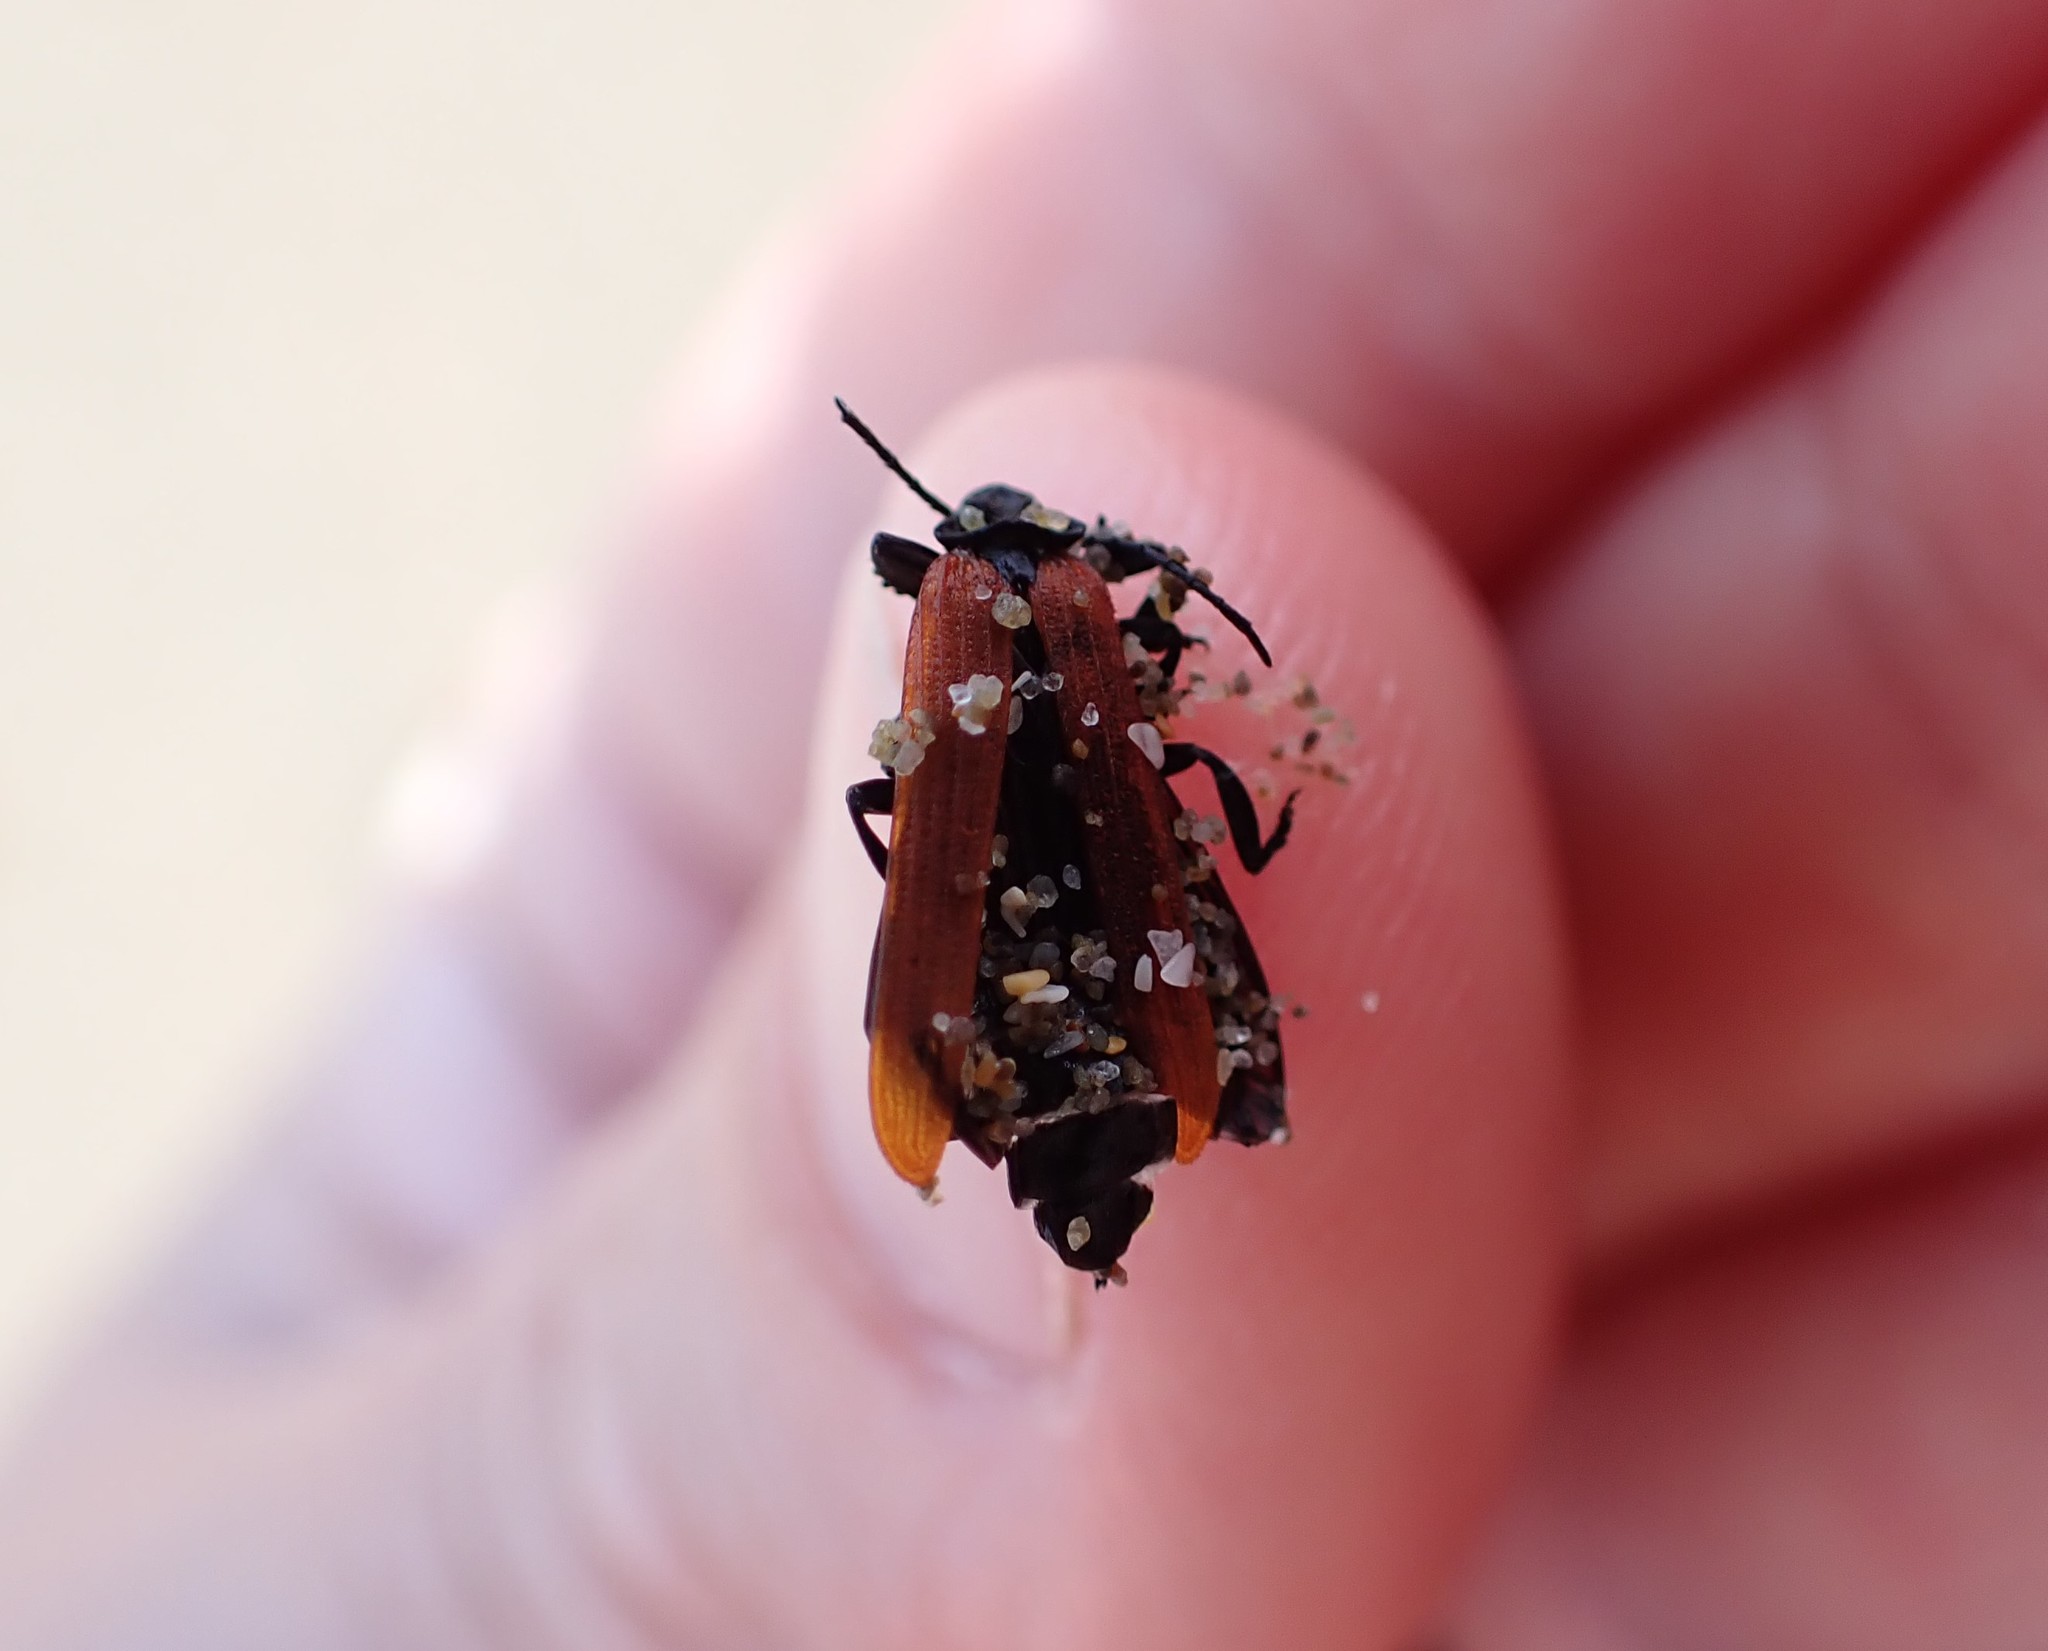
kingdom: Animalia
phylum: Arthropoda
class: Insecta
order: Coleoptera
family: Lycidae
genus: Porrostoma
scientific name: Porrostoma rufipenne
